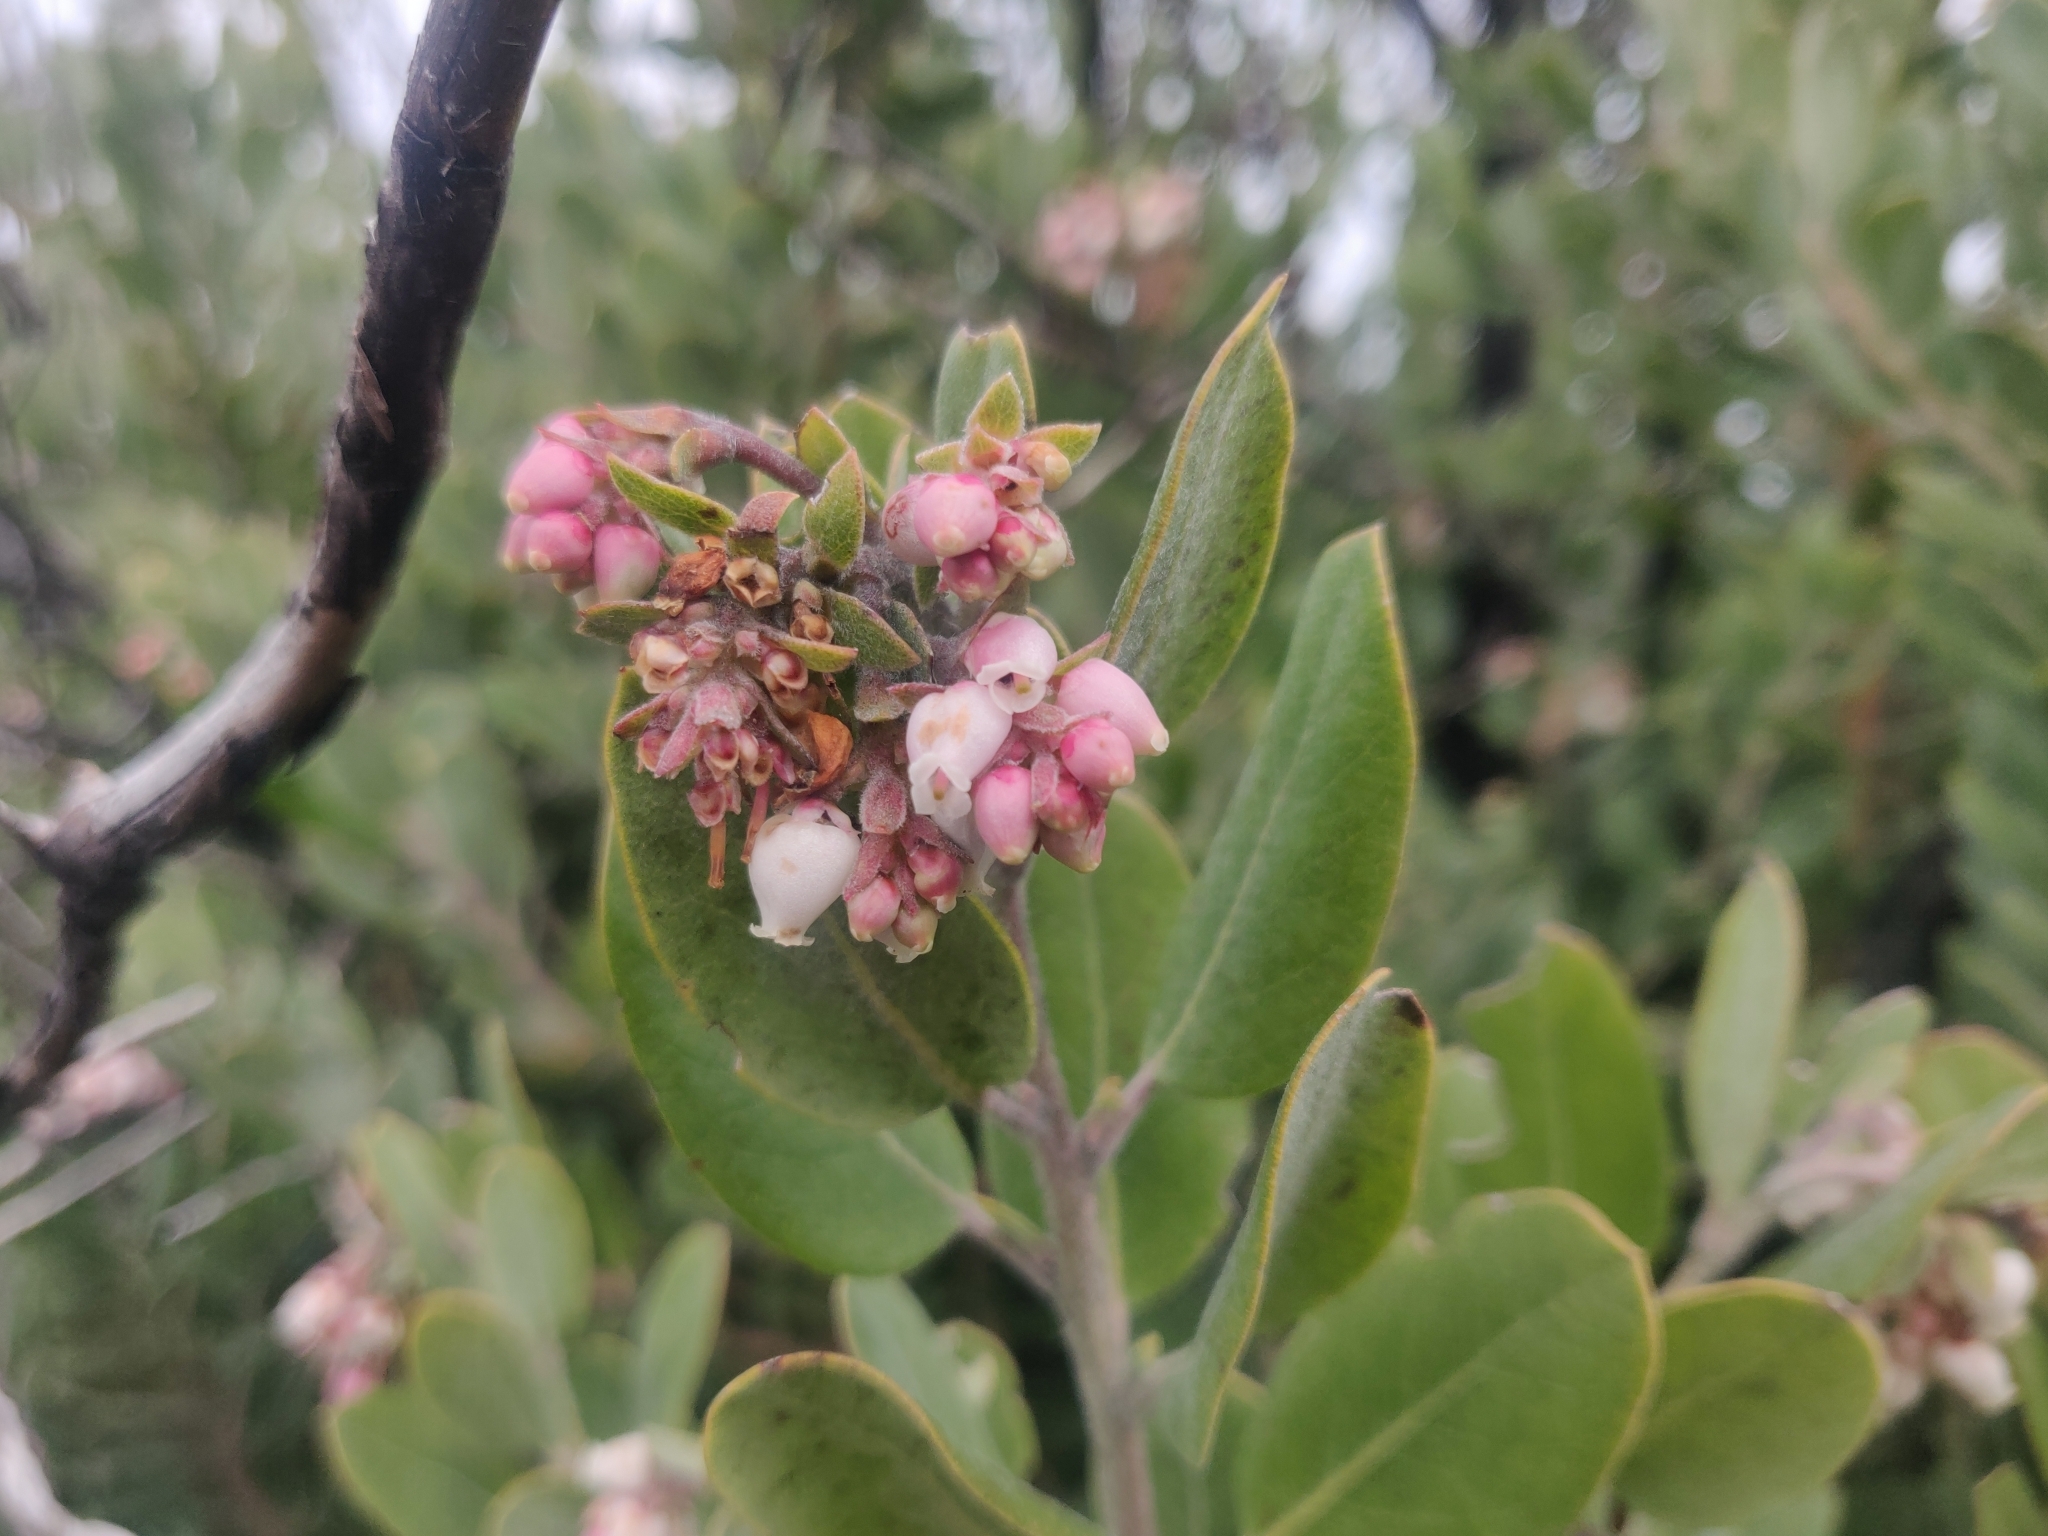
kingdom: Plantae
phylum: Tracheophyta
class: Magnoliopsida
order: Ericales
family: Ericaceae
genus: Arctostaphylos
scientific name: Arctostaphylos crustacea
